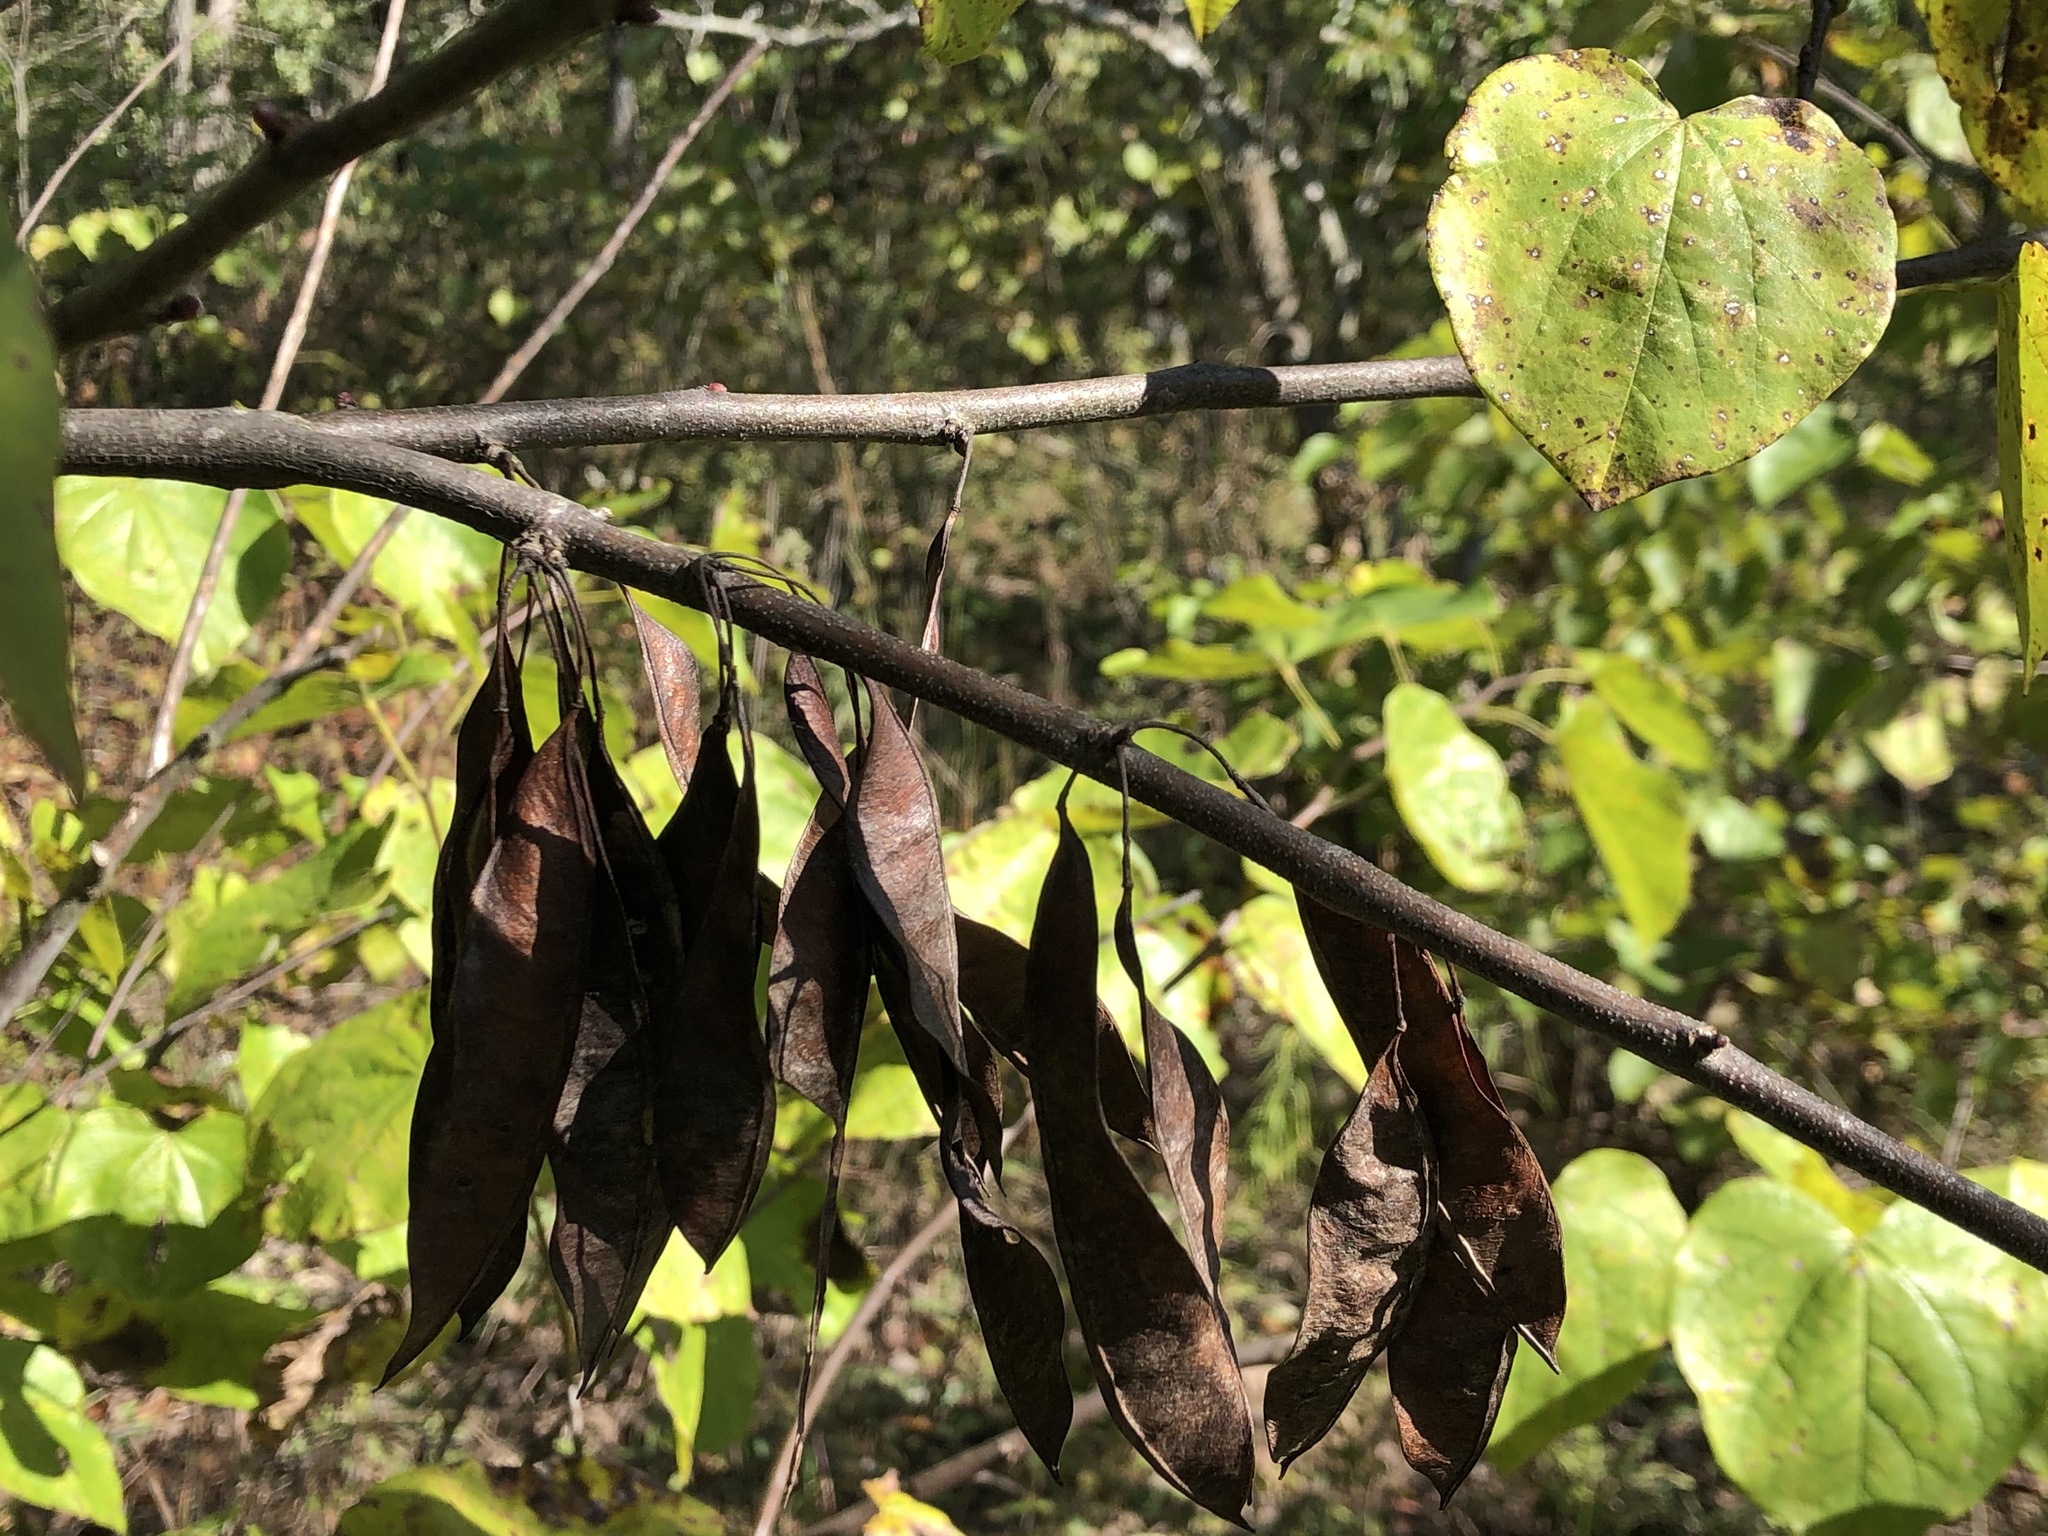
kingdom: Plantae
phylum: Tracheophyta
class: Magnoliopsida
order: Fabales
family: Fabaceae
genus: Cercis
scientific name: Cercis canadensis
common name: Eastern redbud
